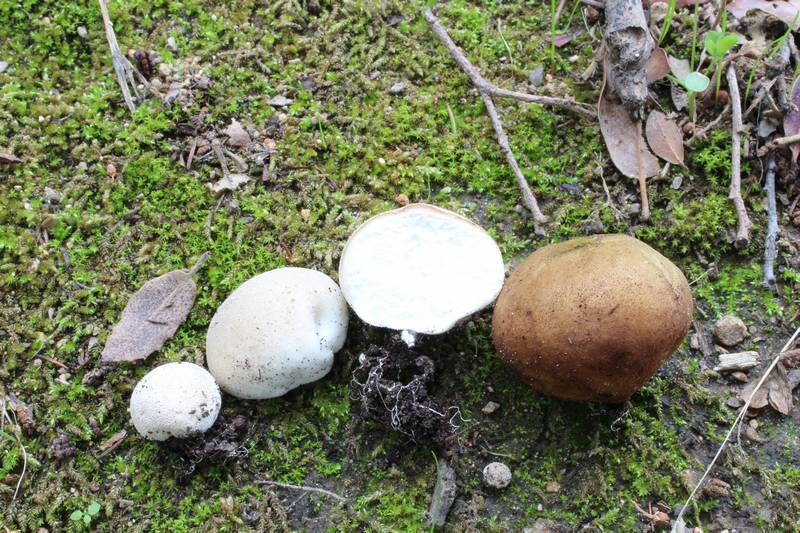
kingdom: Fungi
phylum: Basidiomycota
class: Agaricomycetes
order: Agaricales
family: Lycoperdaceae
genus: Bovista
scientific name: Bovista aestivalis
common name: Deceiving bovist
